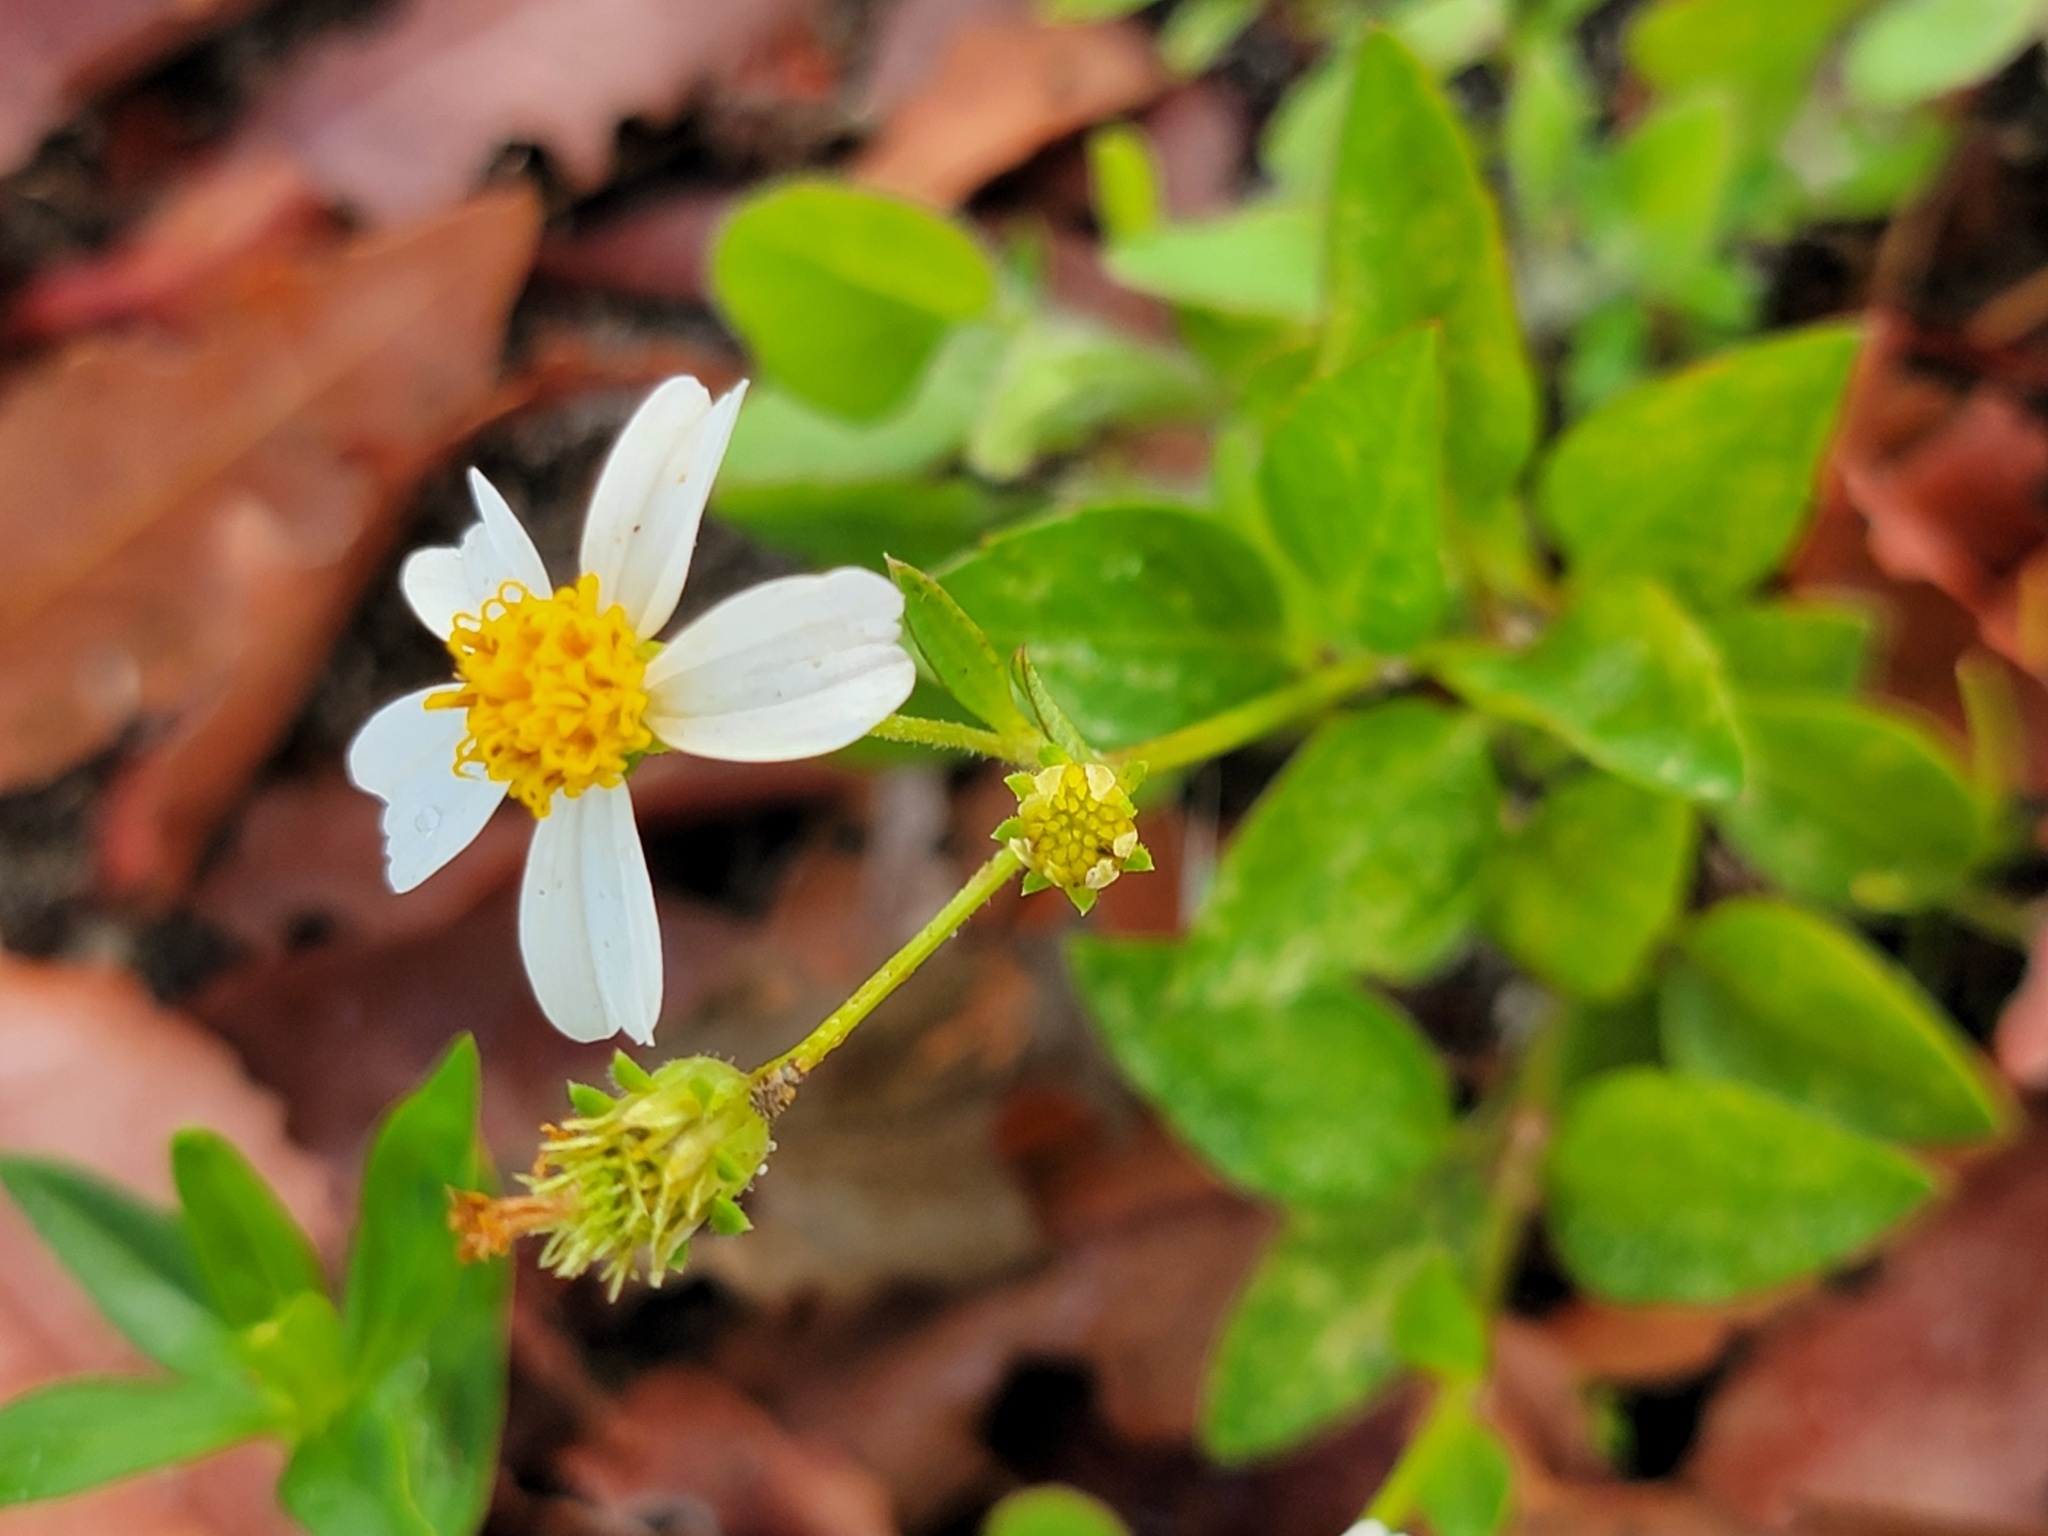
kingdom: Plantae
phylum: Tracheophyta
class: Magnoliopsida
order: Asterales
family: Asteraceae
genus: Bidens
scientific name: Bidens alba
